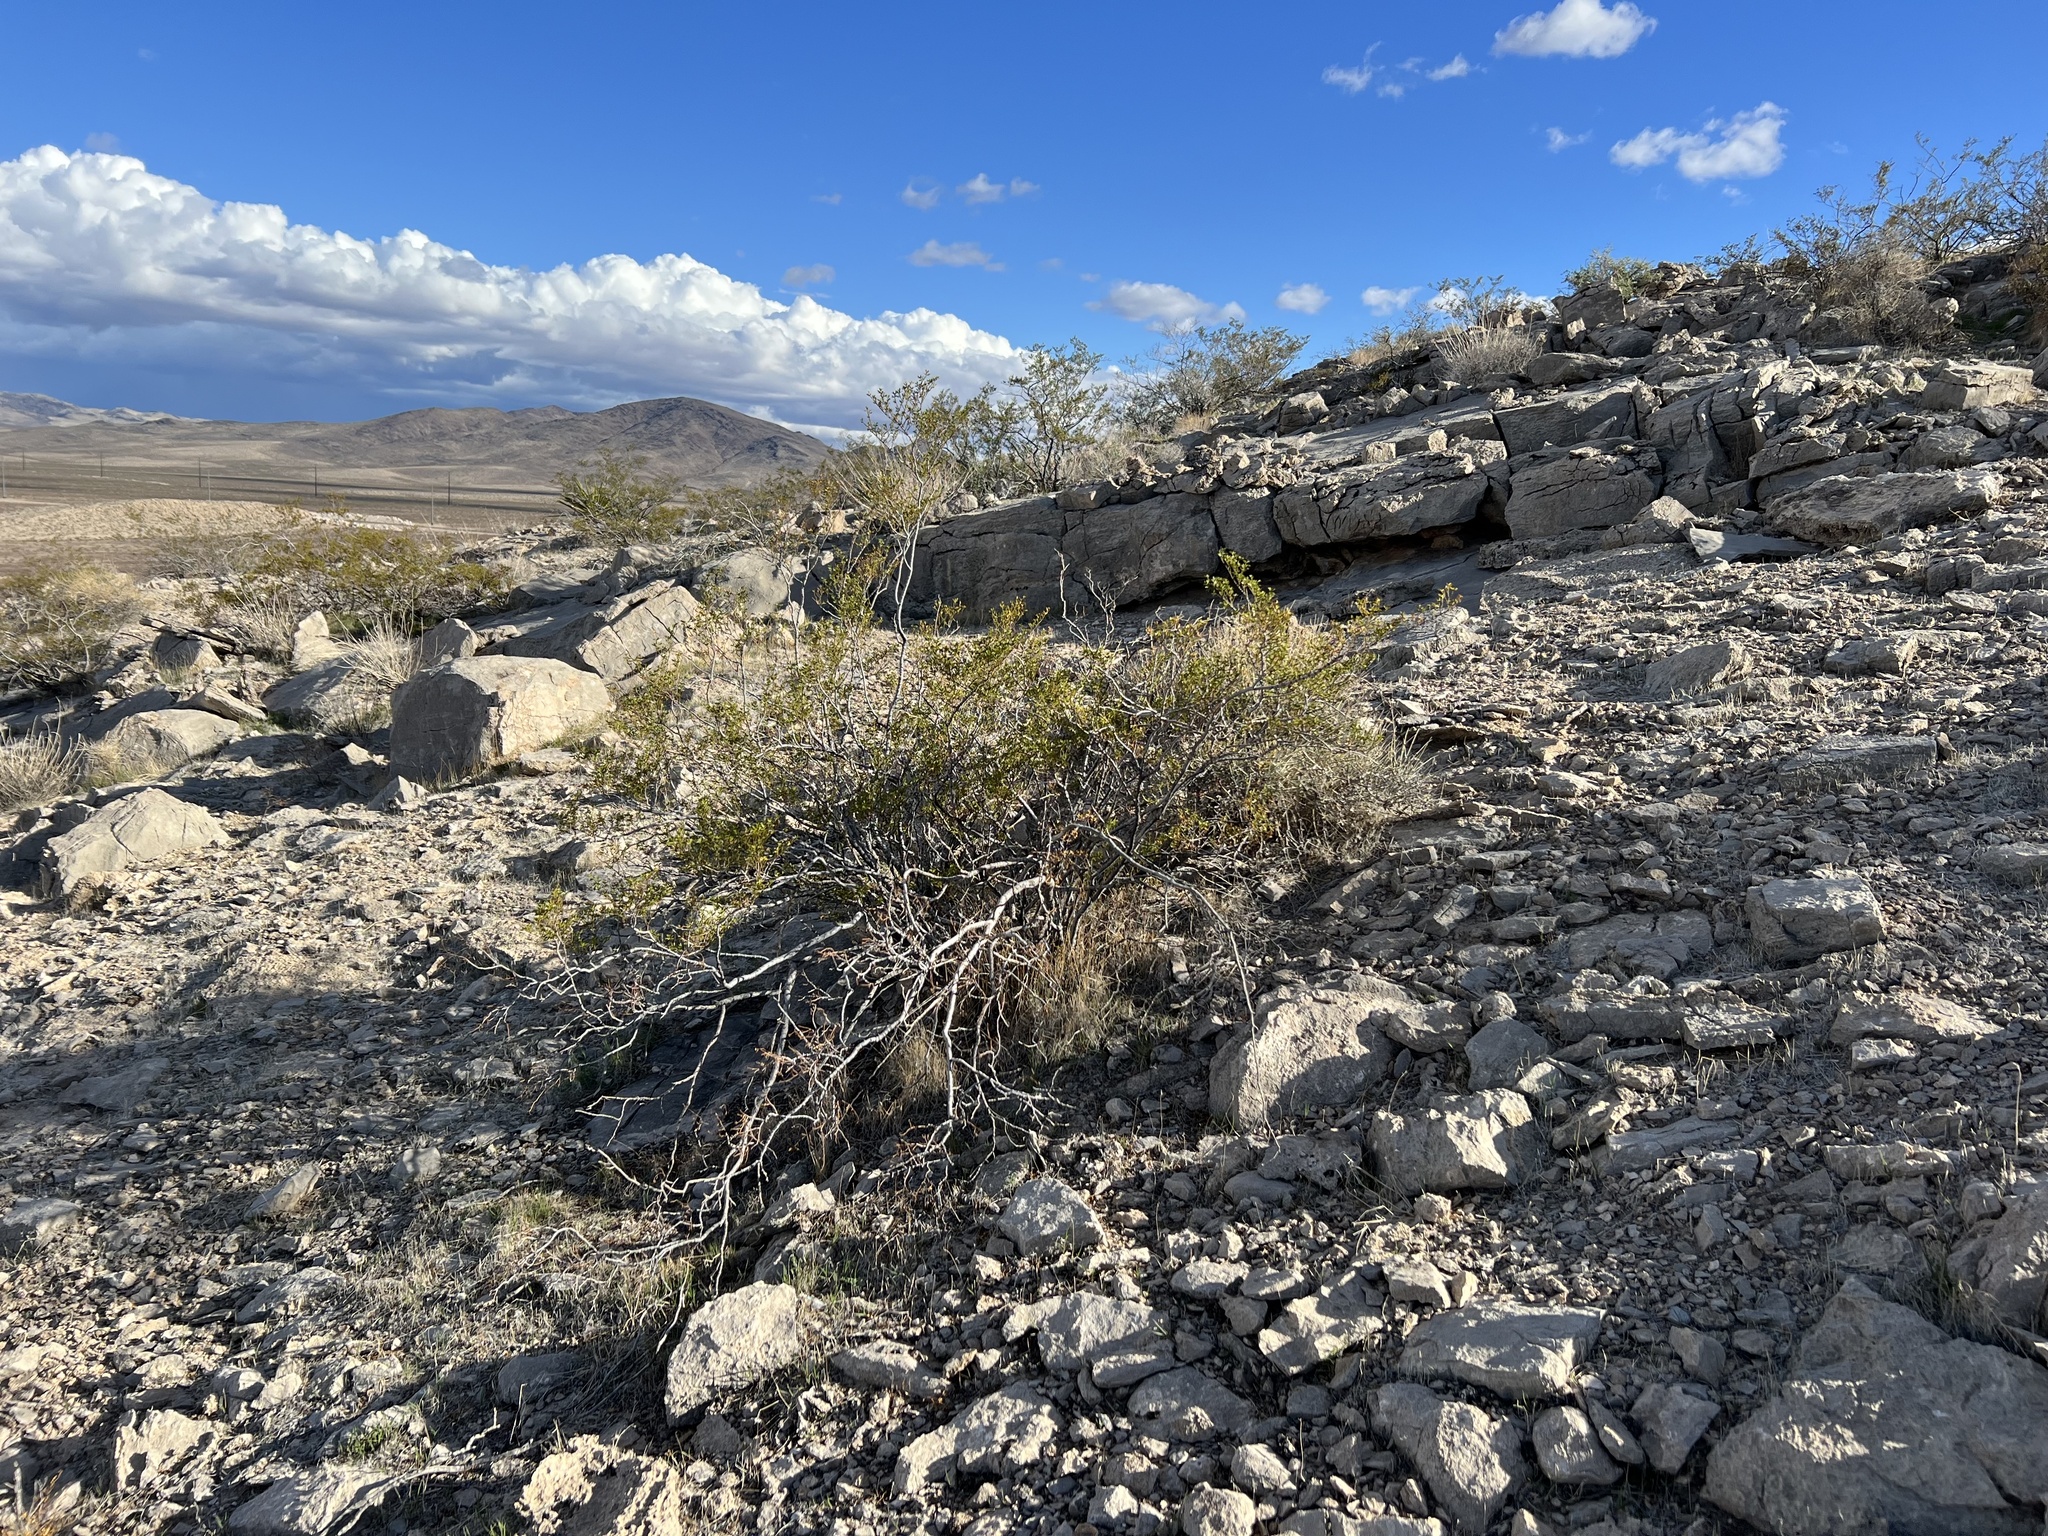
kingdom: Plantae
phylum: Tracheophyta
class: Magnoliopsida
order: Zygophyllales
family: Zygophyllaceae
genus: Larrea
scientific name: Larrea tridentata
